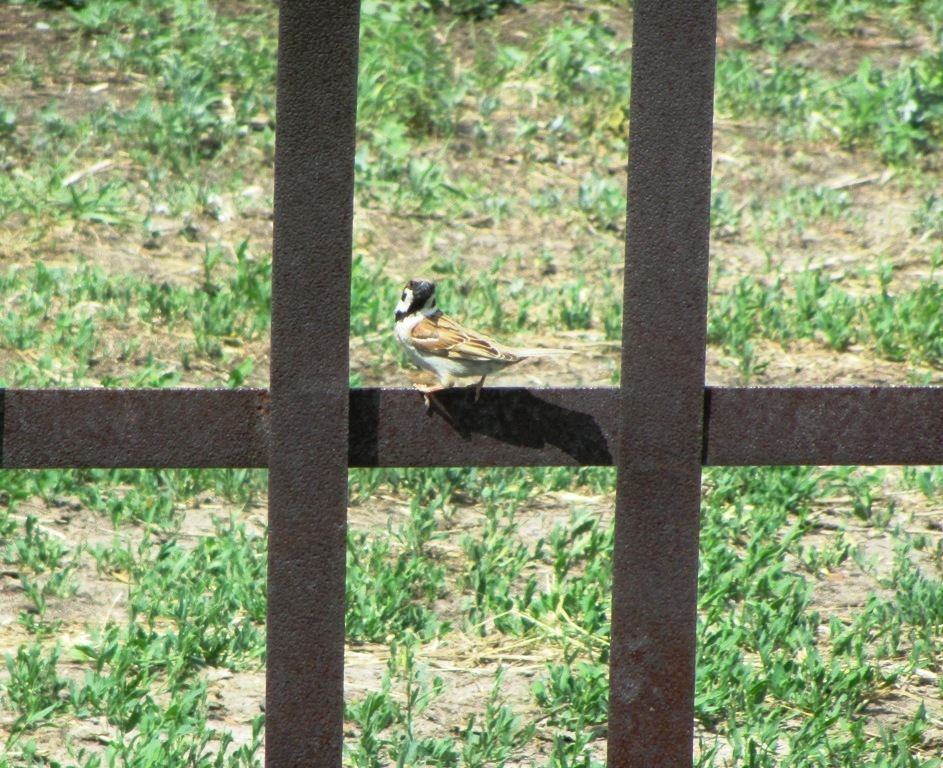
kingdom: Animalia
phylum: Chordata
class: Aves
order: Passeriformes
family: Passeridae
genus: Passer
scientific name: Passer montanus
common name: Eurasian tree sparrow
